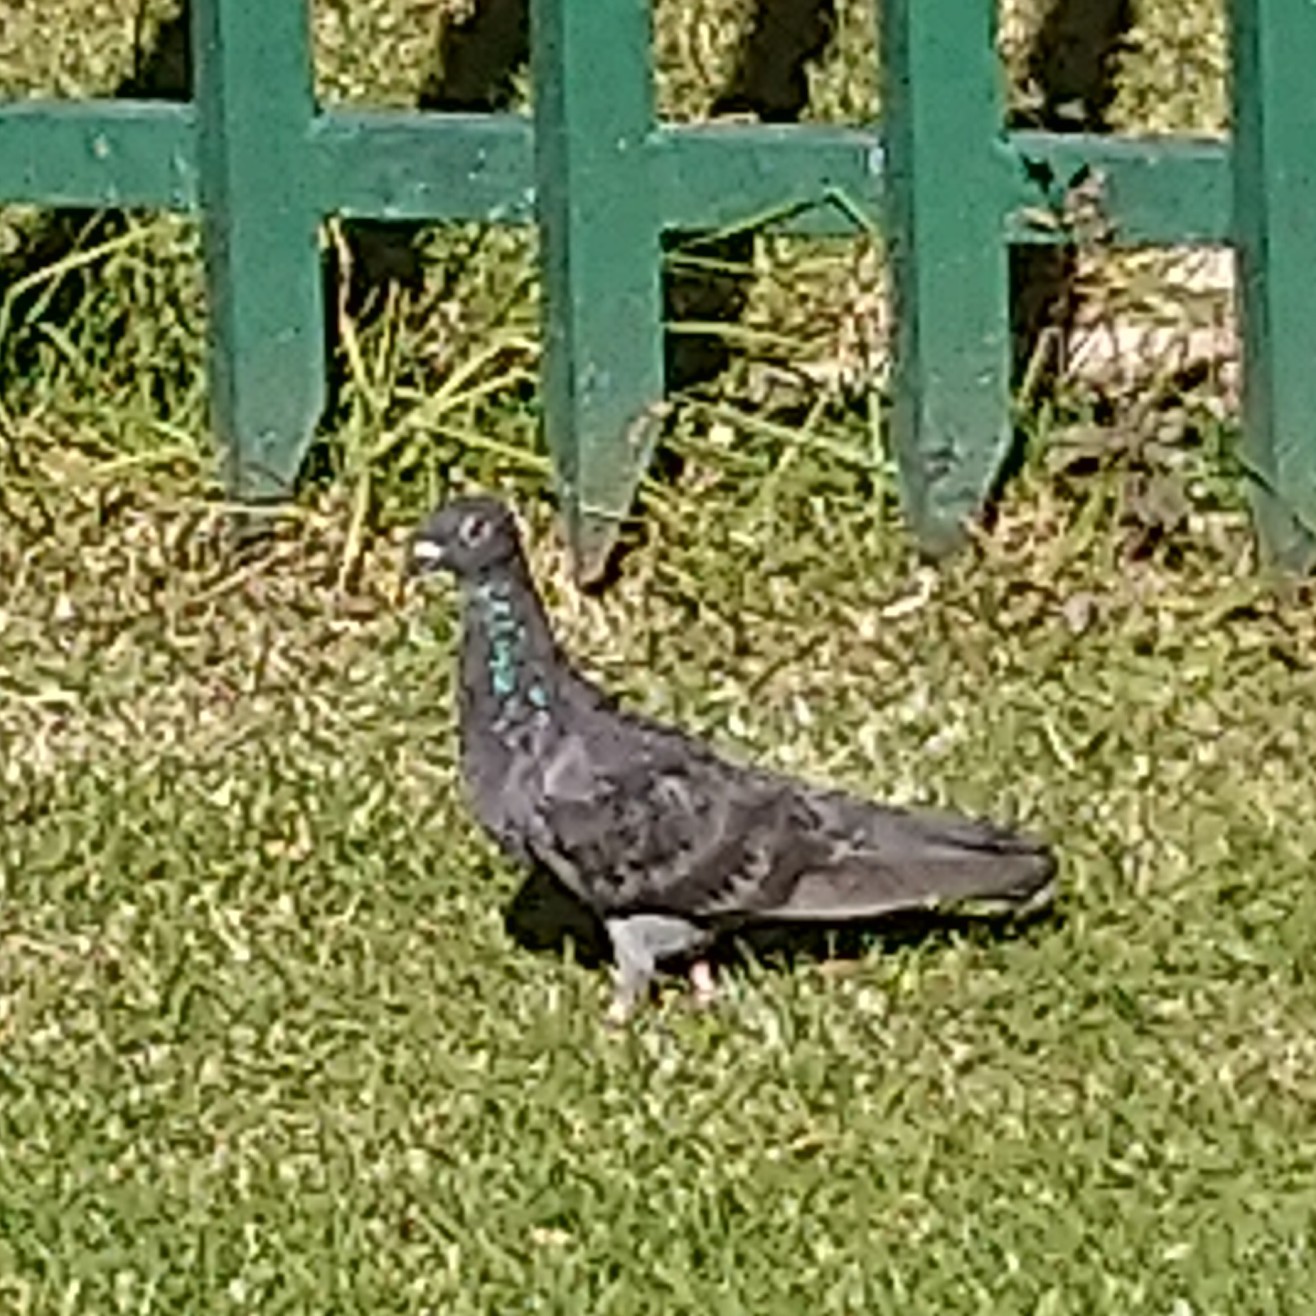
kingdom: Animalia
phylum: Chordata
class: Aves
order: Columbiformes
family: Columbidae
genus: Columba
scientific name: Columba livia
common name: Rock pigeon
